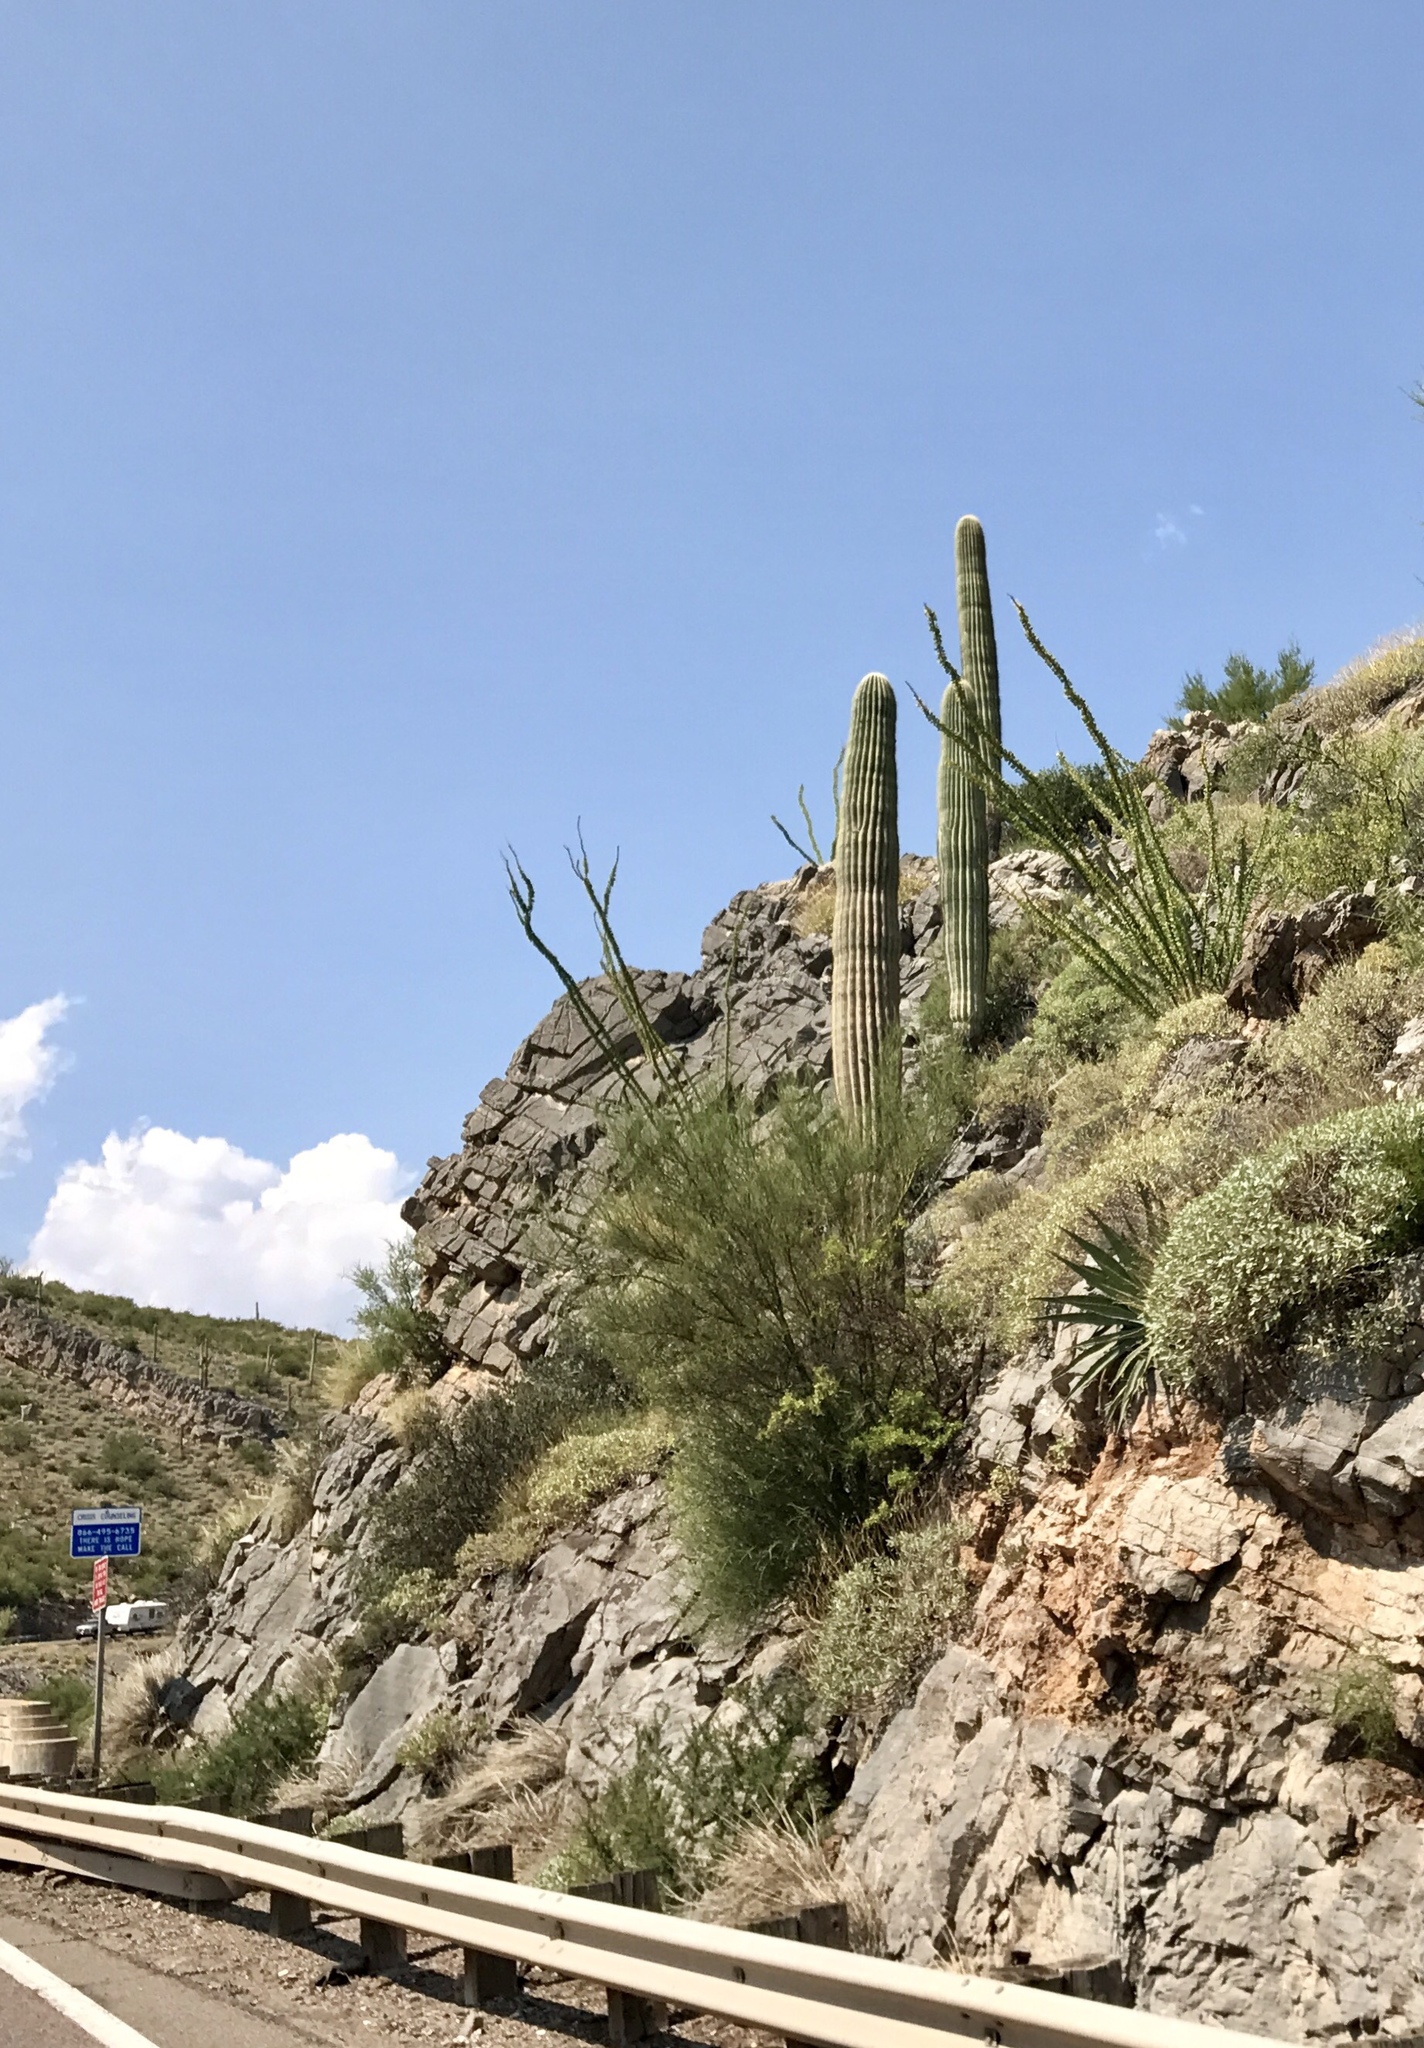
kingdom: Plantae
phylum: Tracheophyta
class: Magnoliopsida
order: Caryophyllales
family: Cactaceae
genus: Carnegiea
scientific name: Carnegiea gigantea
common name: Saguaro
